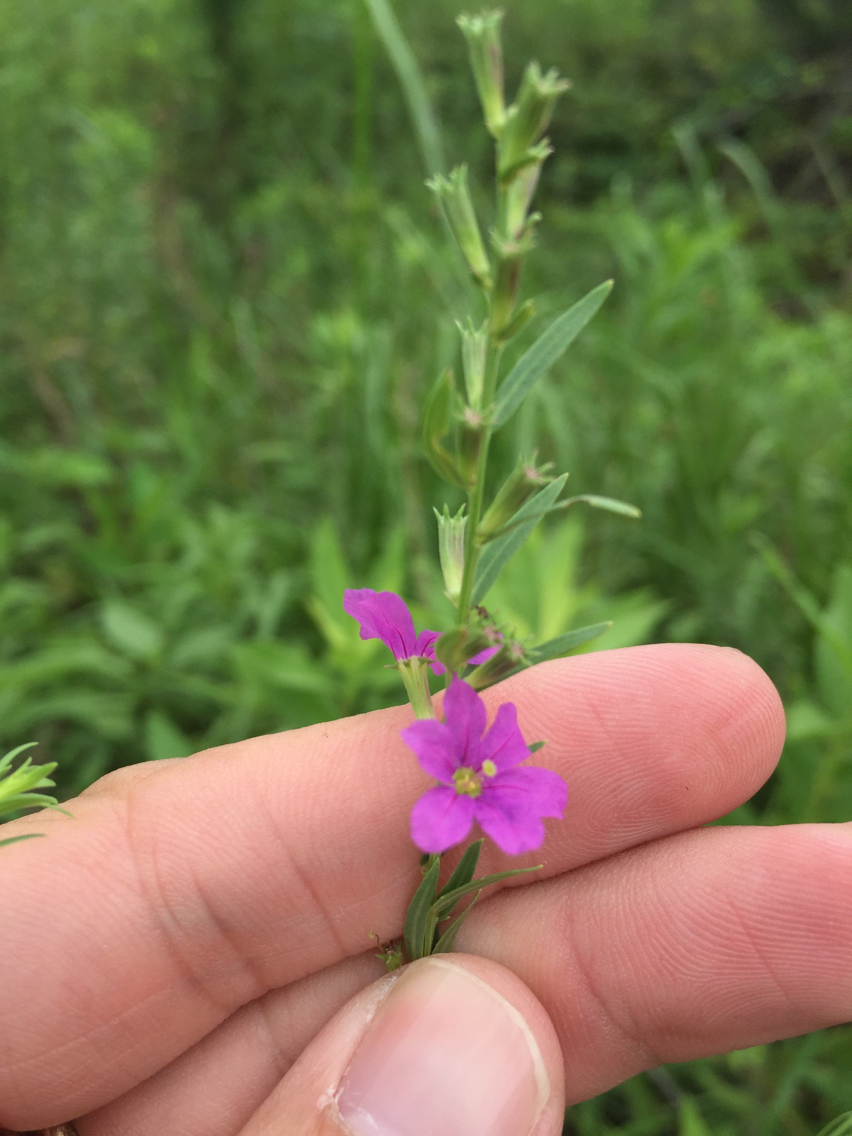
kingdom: Plantae
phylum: Tracheophyta
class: Magnoliopsida
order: Myrtales
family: Lythraceae
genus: Lythrum
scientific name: Lythrum alatum
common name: Winged loosestrife
